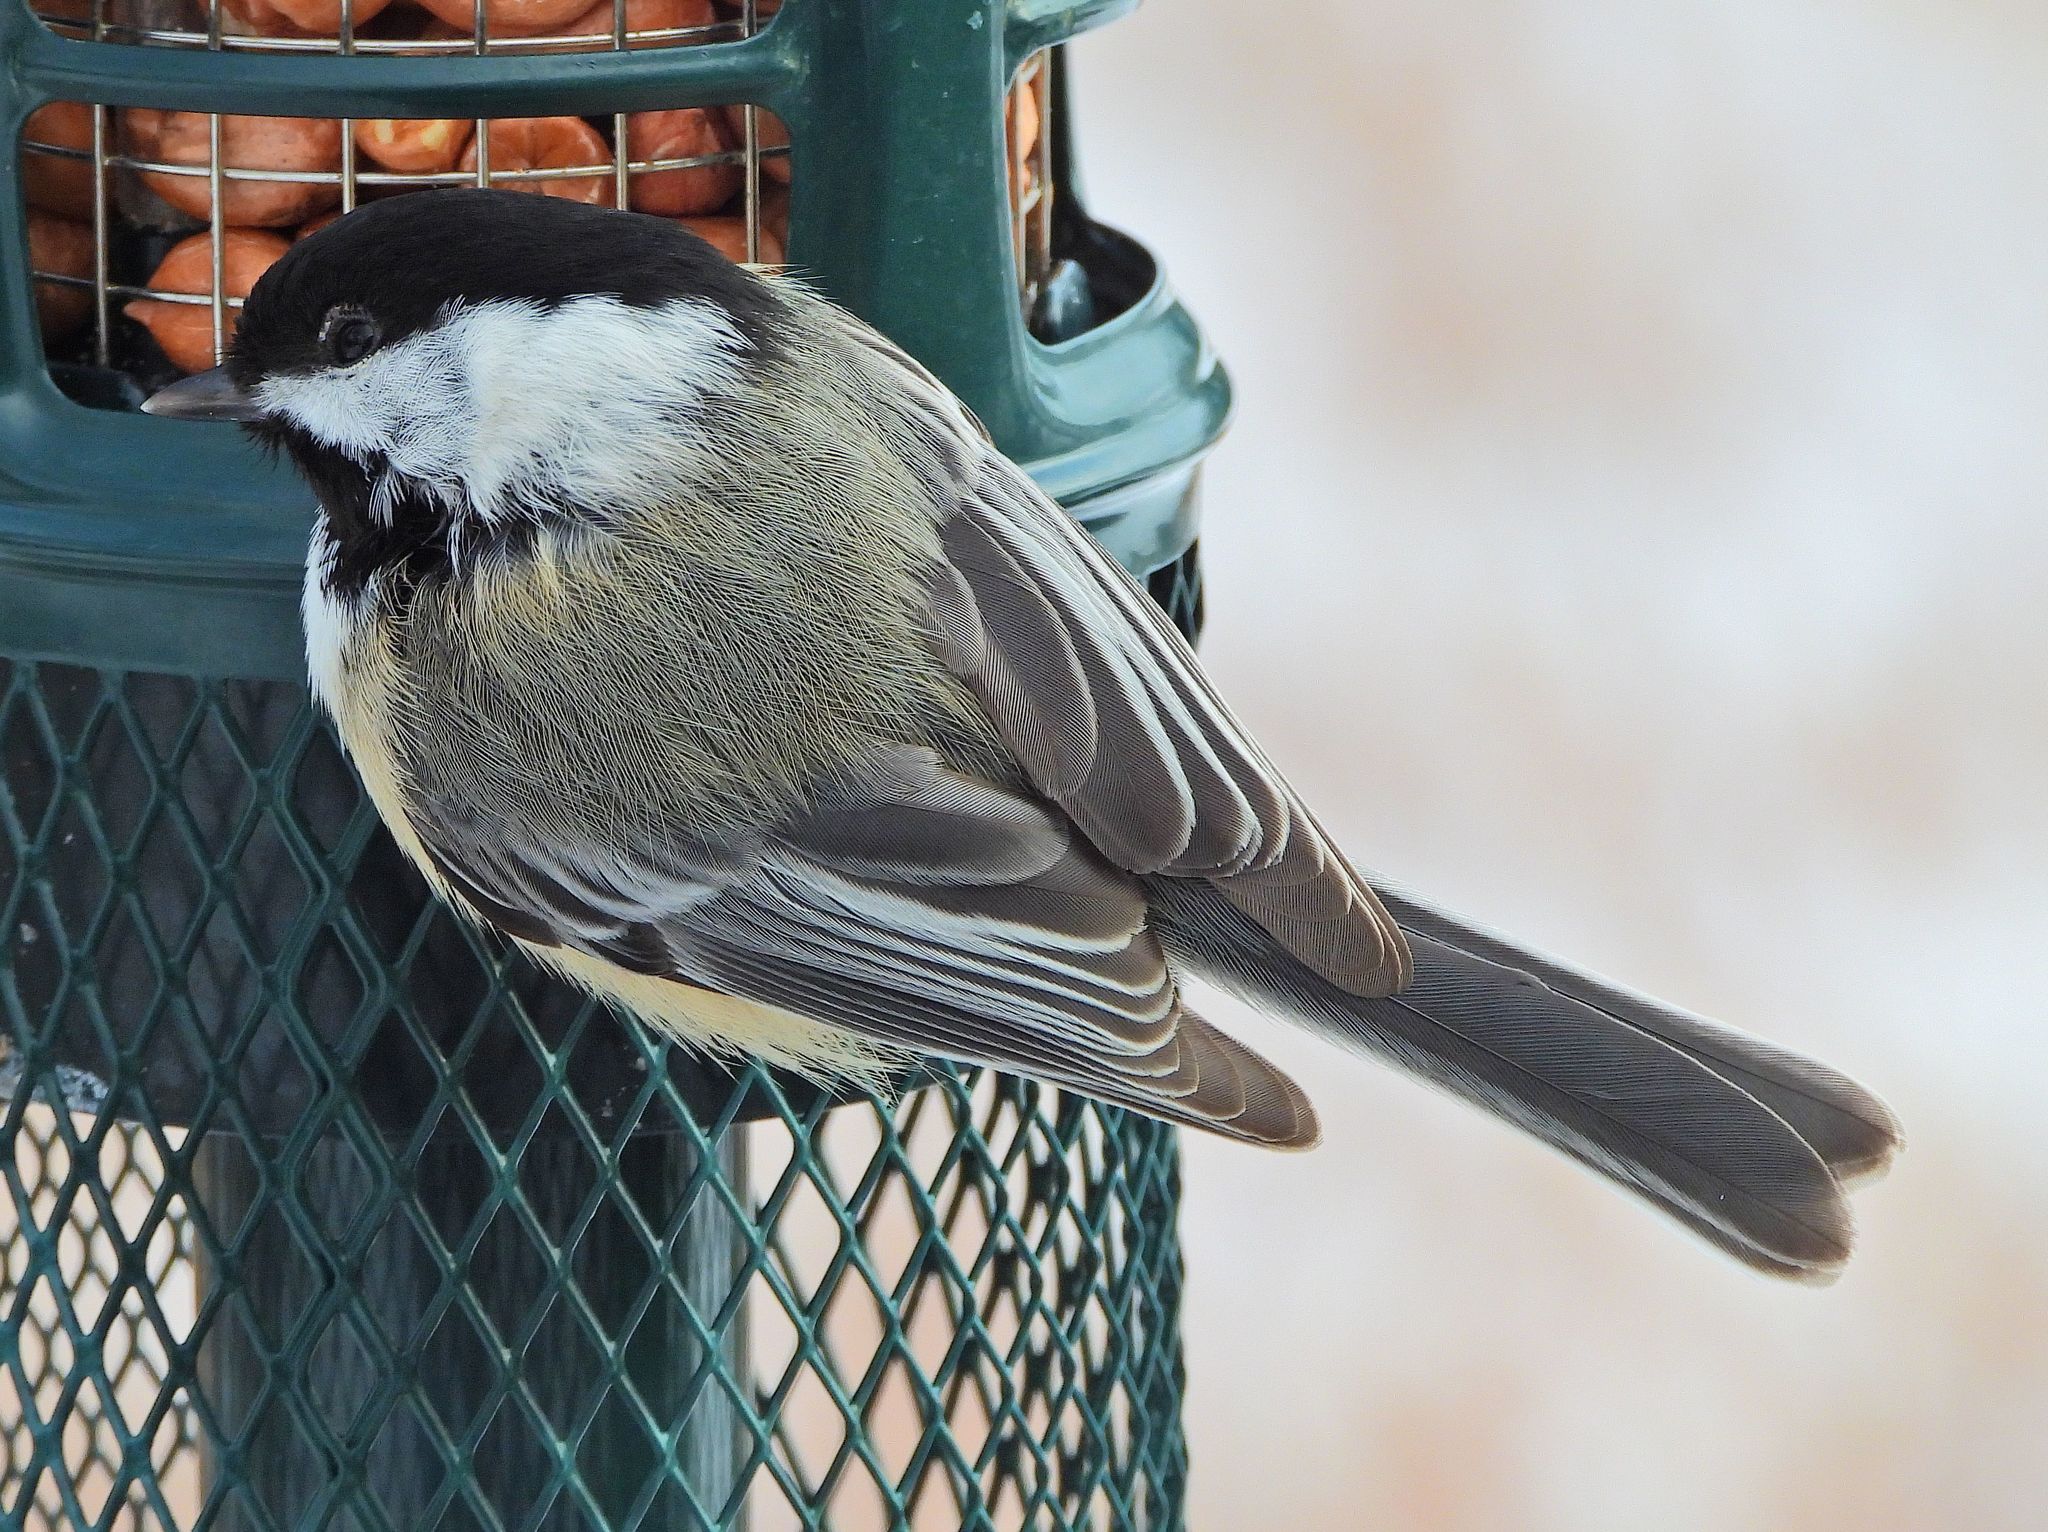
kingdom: Animalia
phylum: Chordata
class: Aves
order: Passeriformes
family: Paridae
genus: Poecile
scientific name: Poecile atricapillus
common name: Black-capped chickadee
